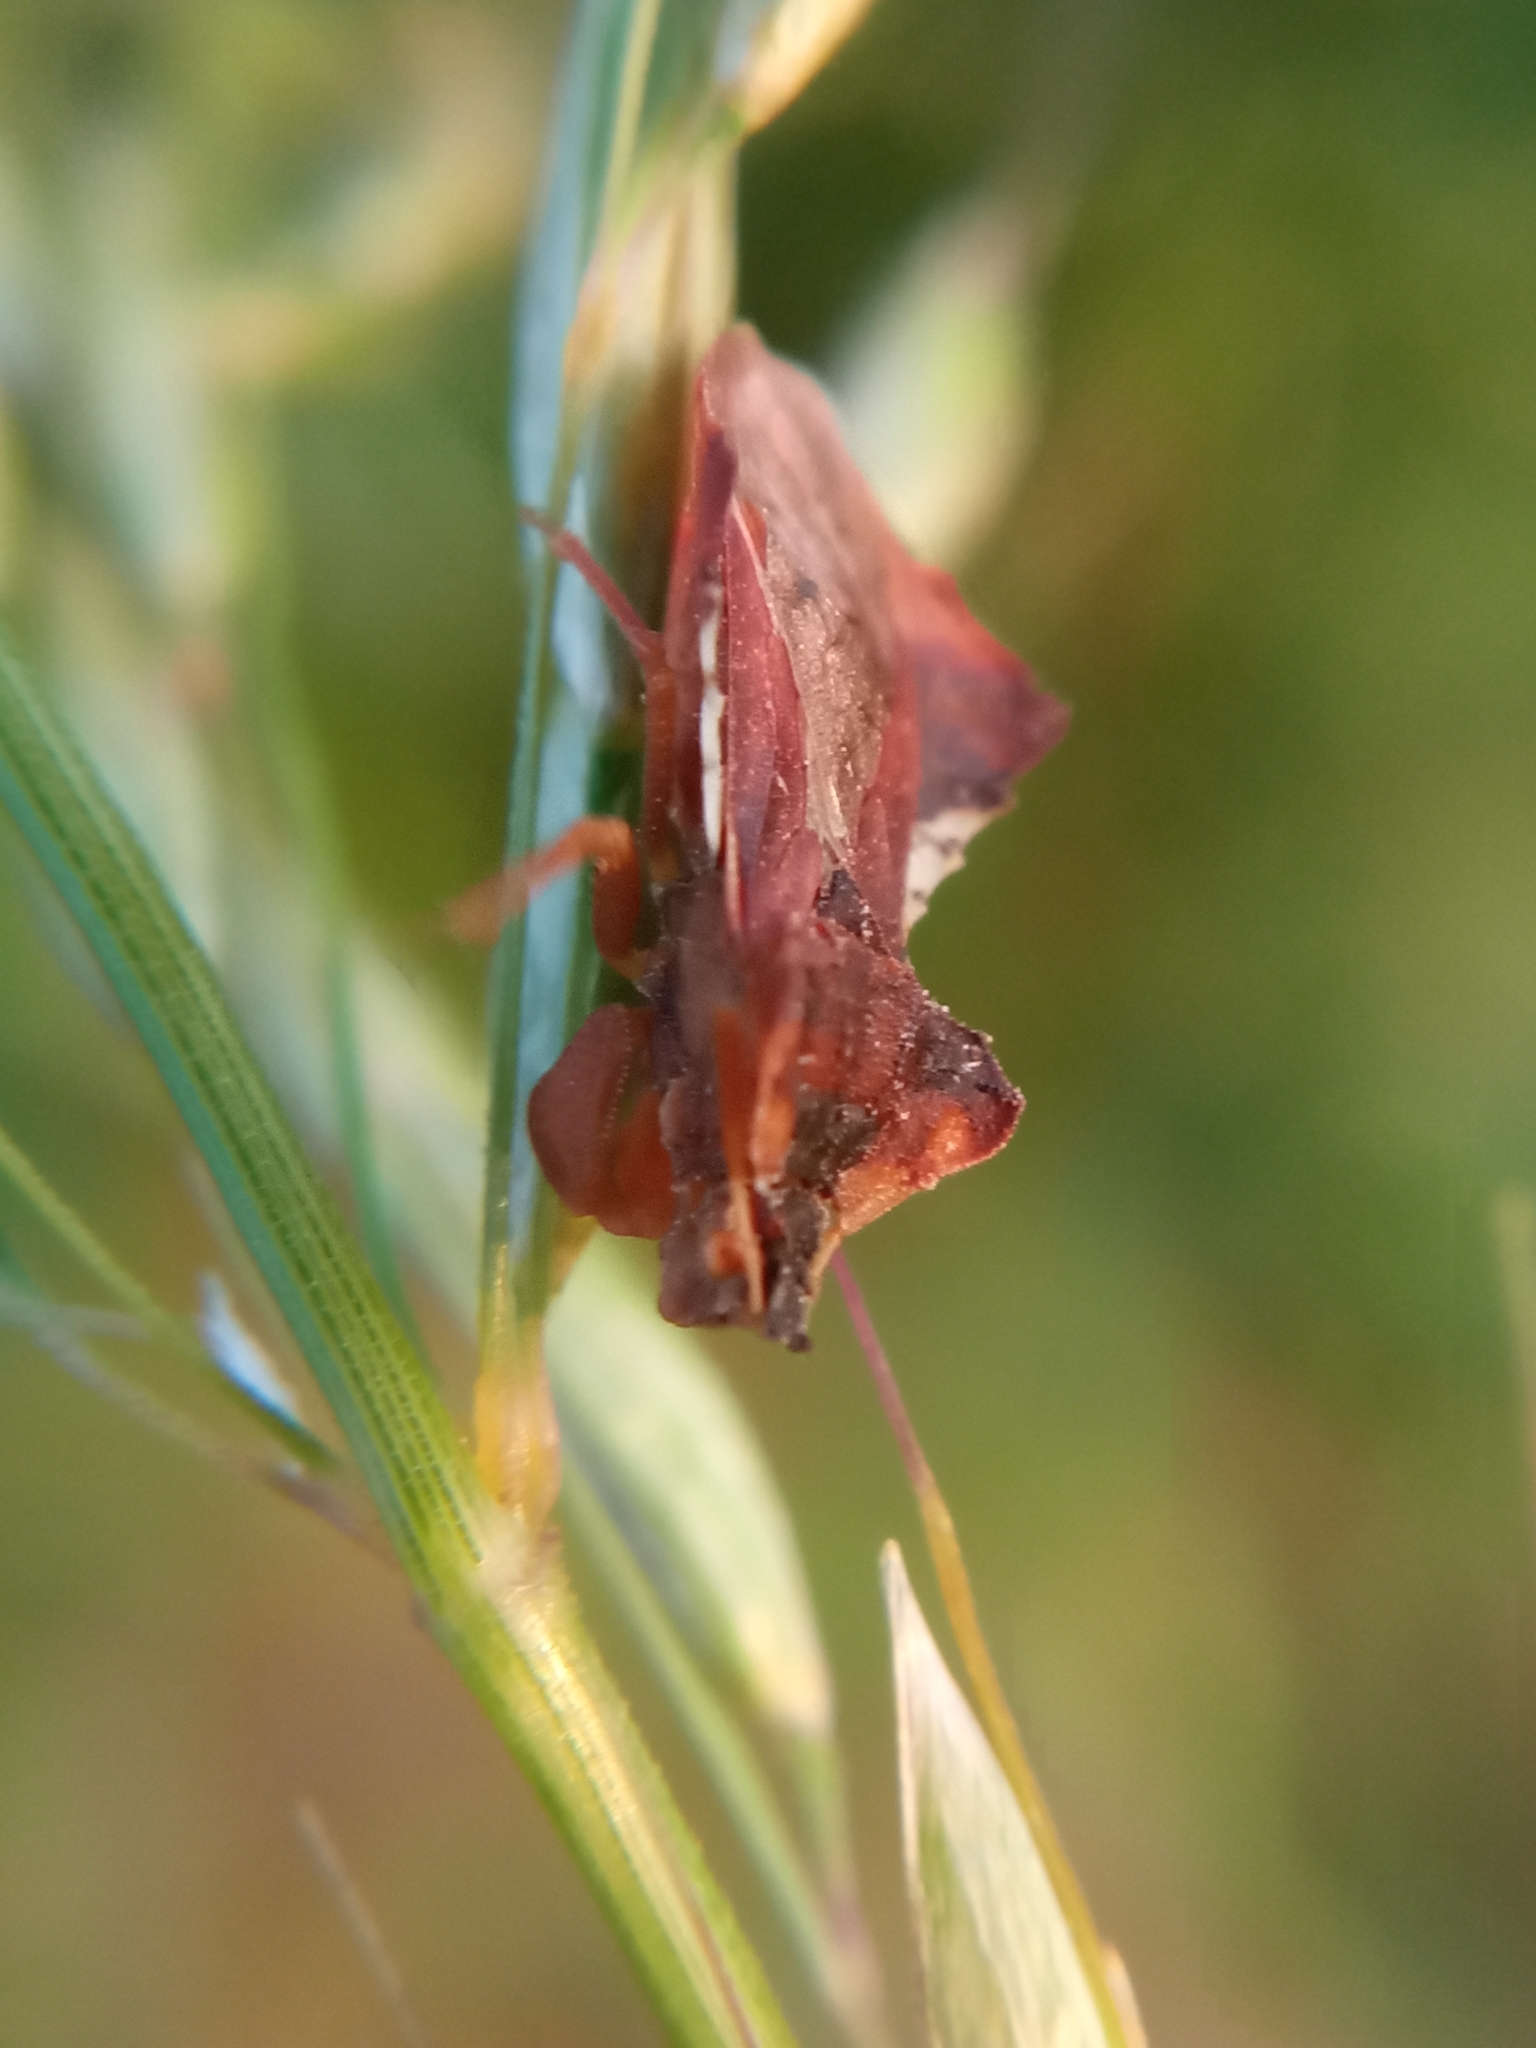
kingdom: Animalia
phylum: Arthropoda
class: Insecta
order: Hemiptera
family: Reduviidae
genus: Phymata
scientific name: Phymata crassipes
